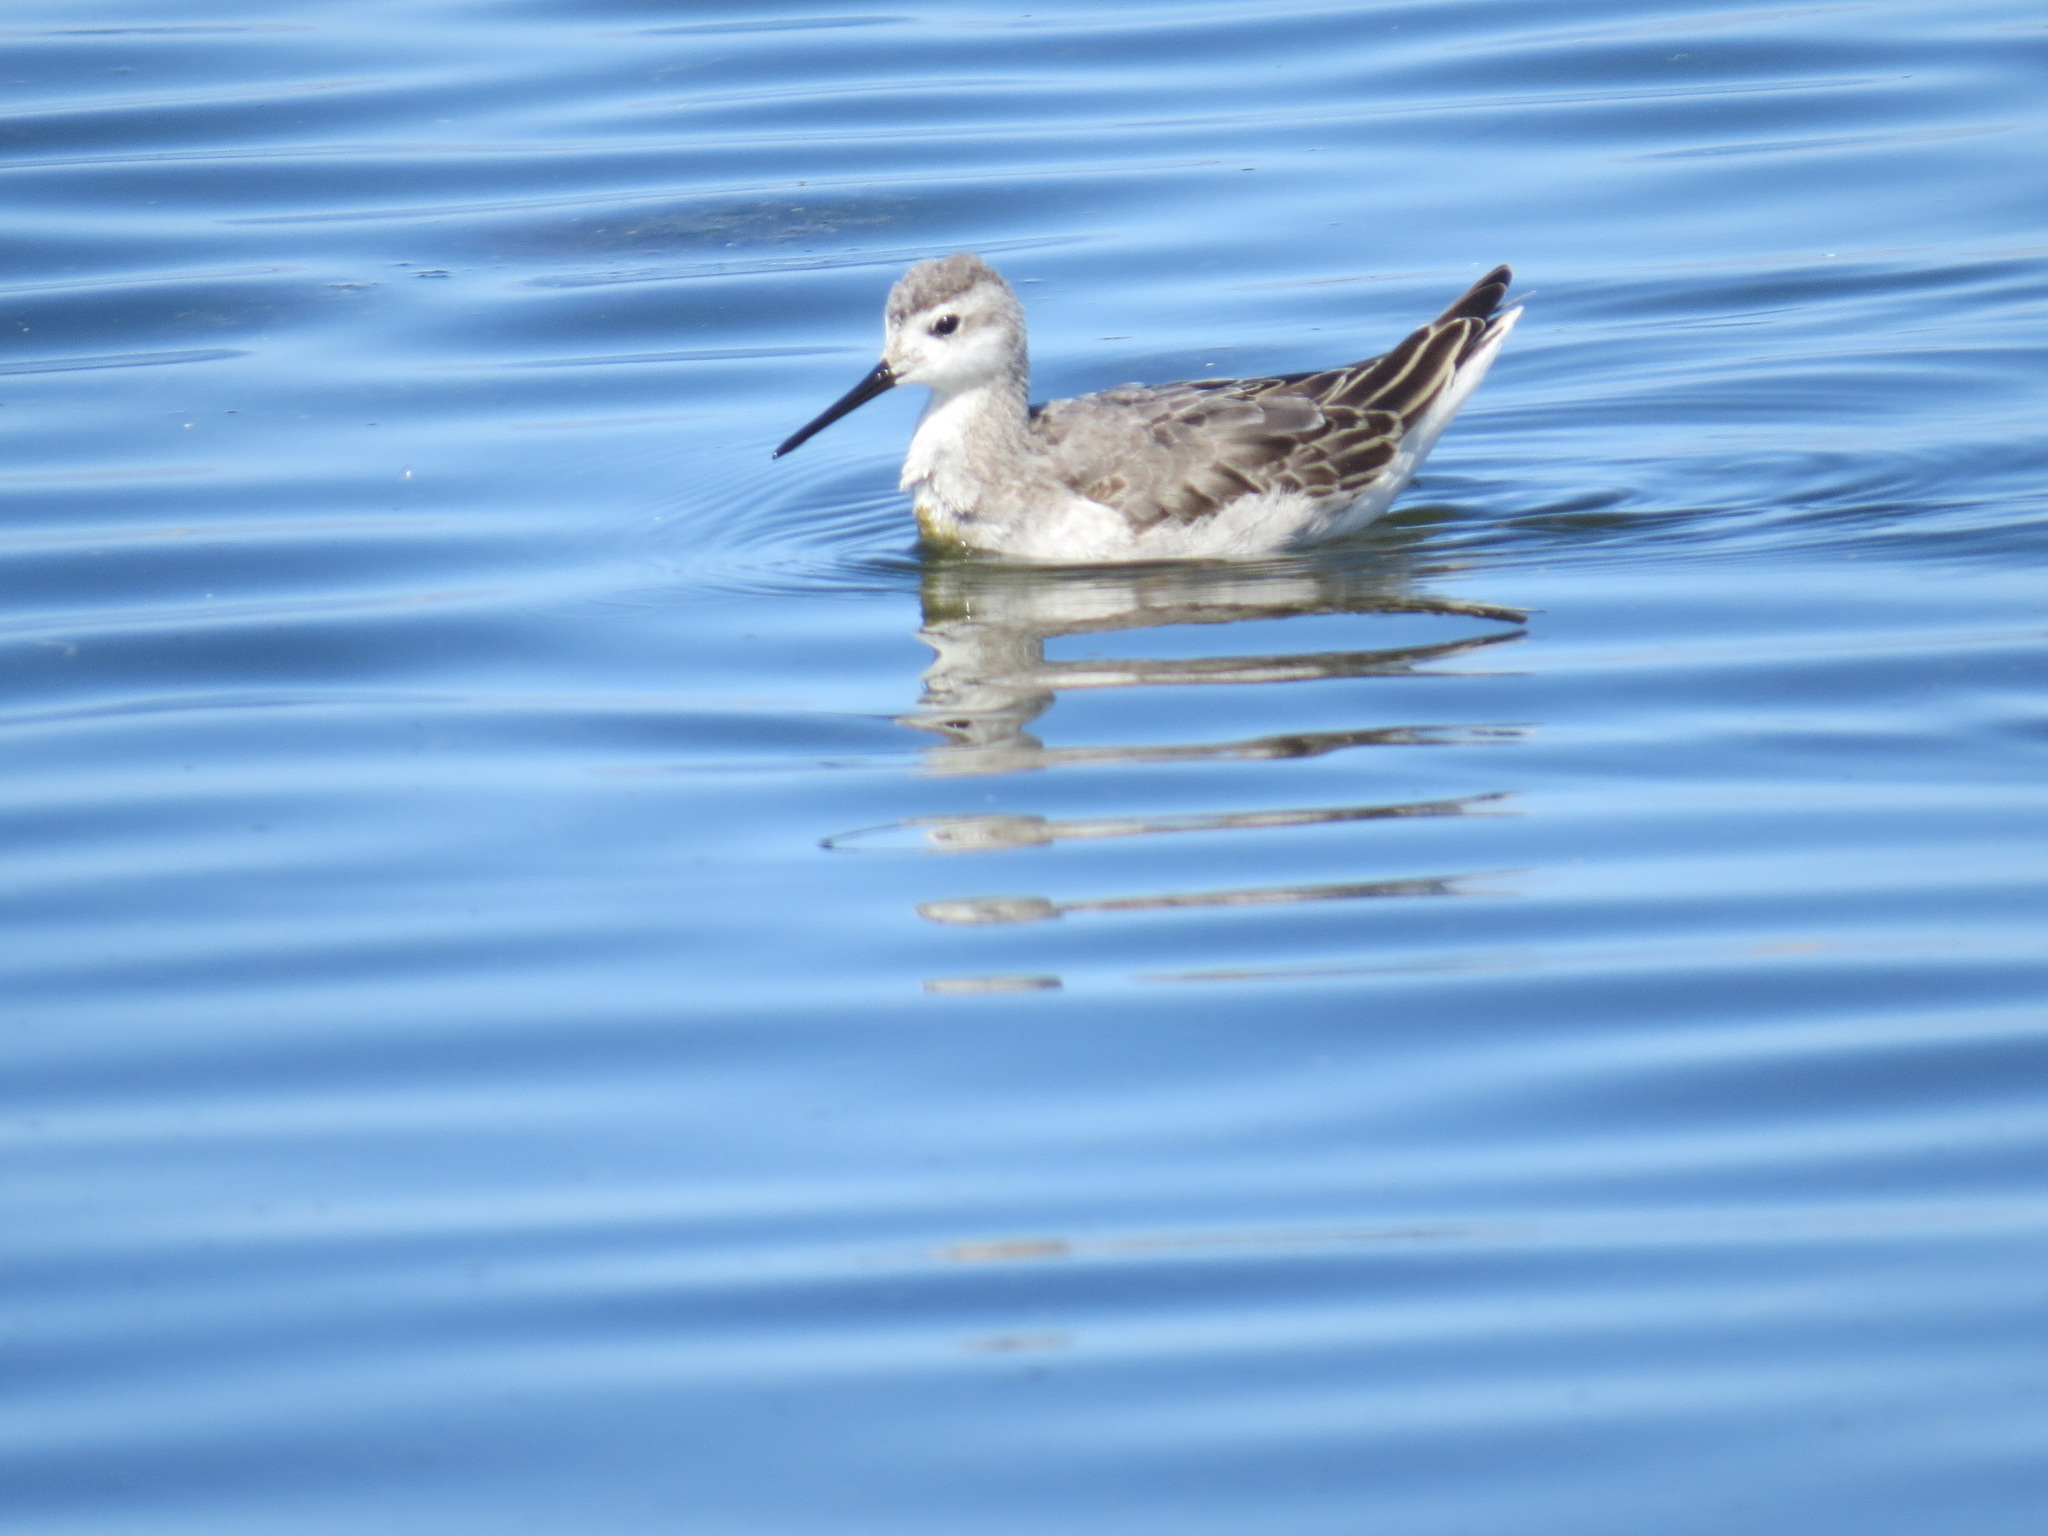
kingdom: Animalia
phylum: Chordata
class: Aves
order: Charadriiformes
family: Scolopacidae
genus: Phalaropus
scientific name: Phalaropus tricolor
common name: Wilson's phalarope
